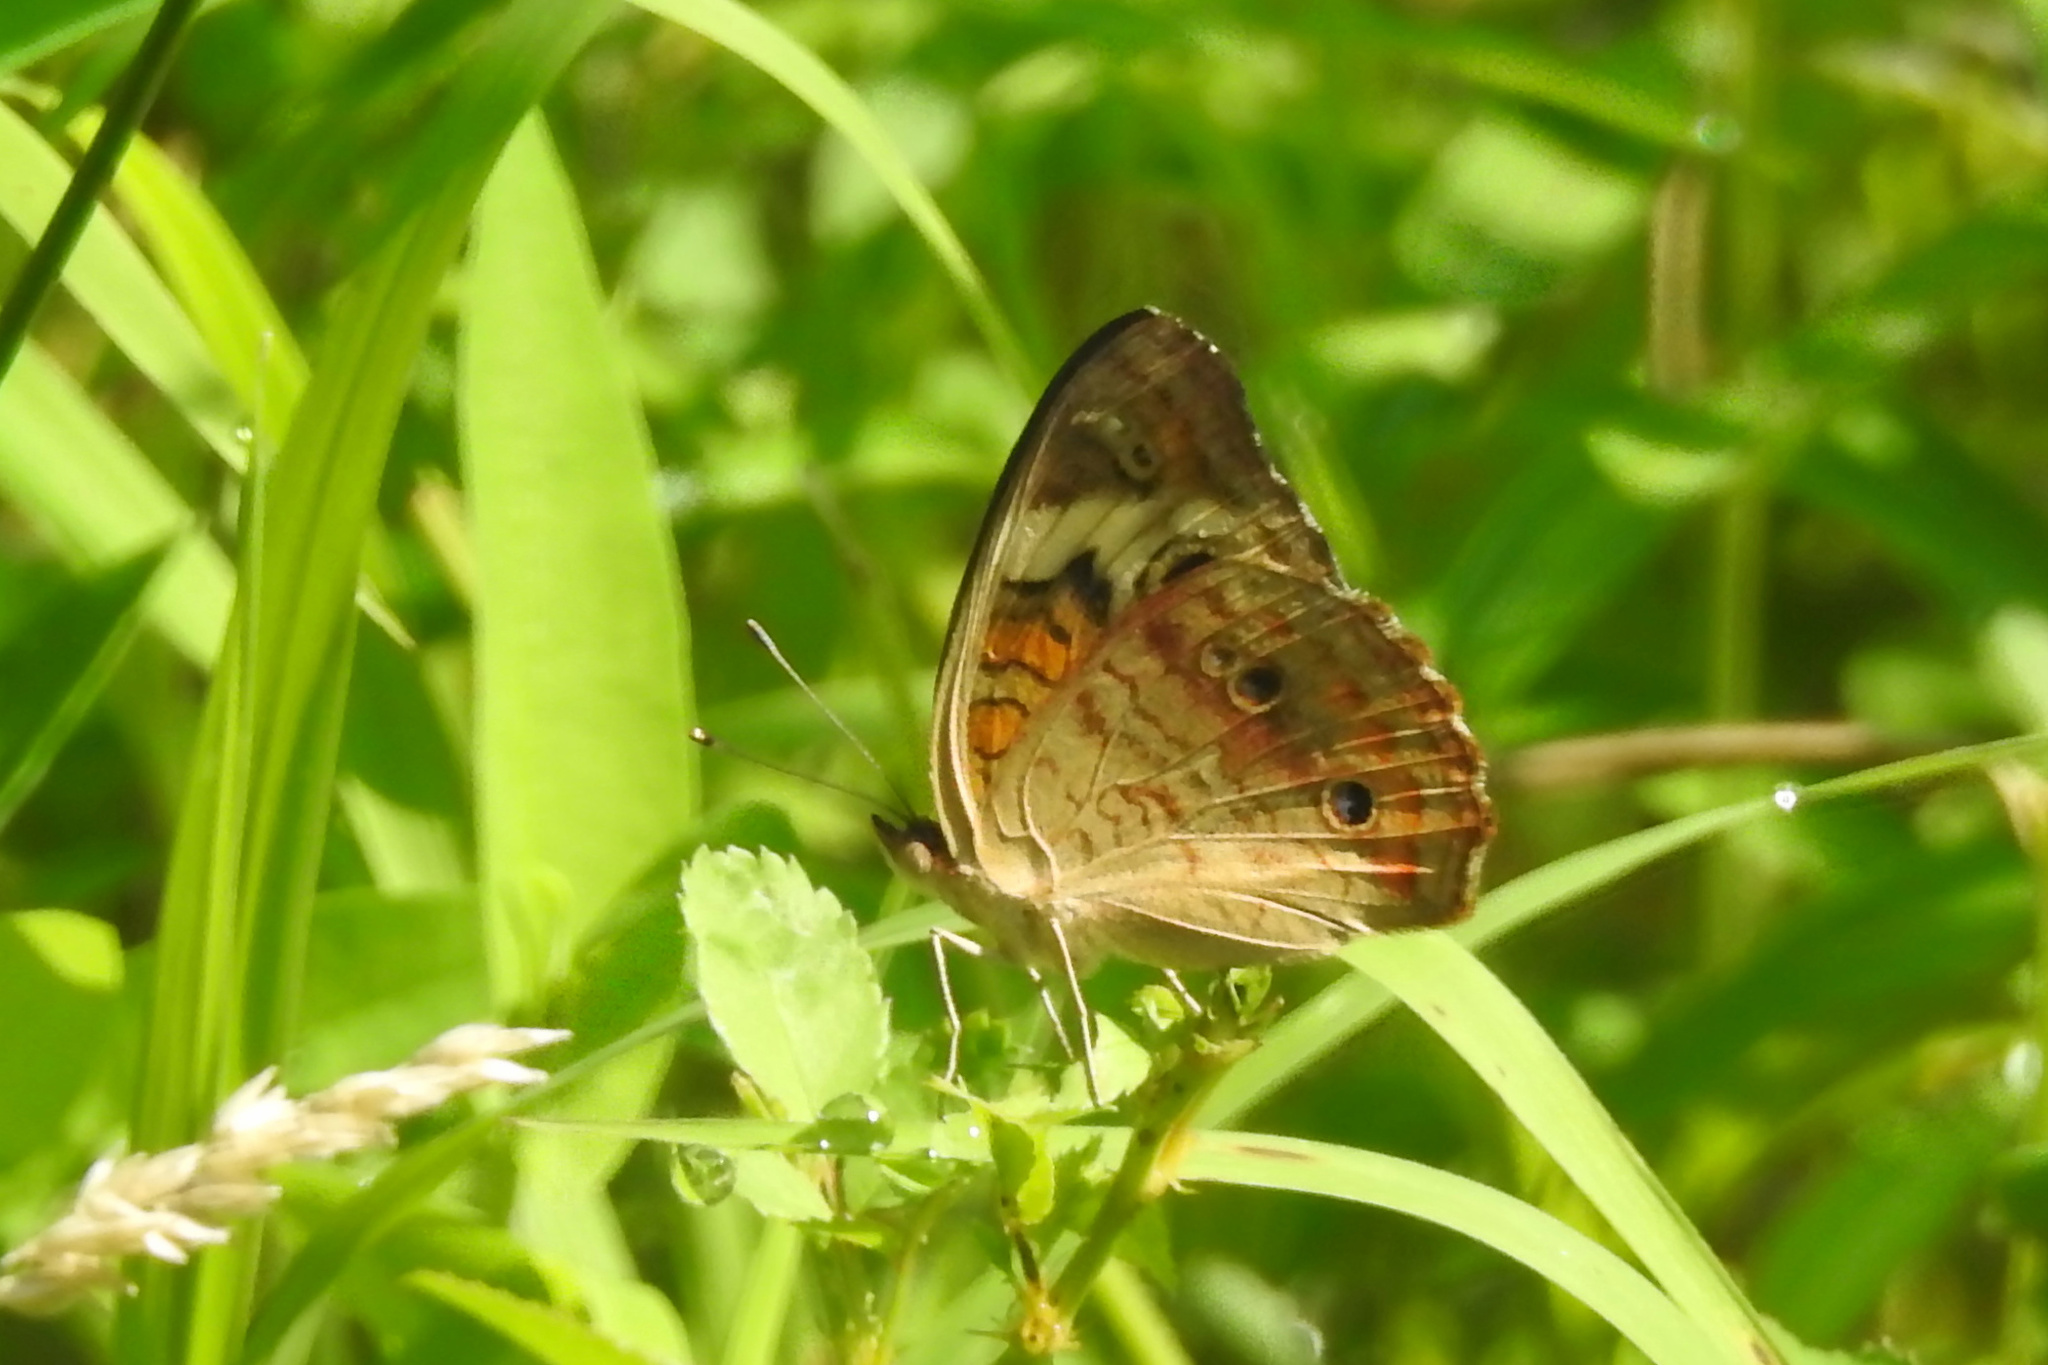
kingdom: Animalia
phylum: Arthropoda
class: Insecta
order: Lepidoptera
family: Nymphalidae
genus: Junonia
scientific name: Junonia coenia
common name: Common buckeye
